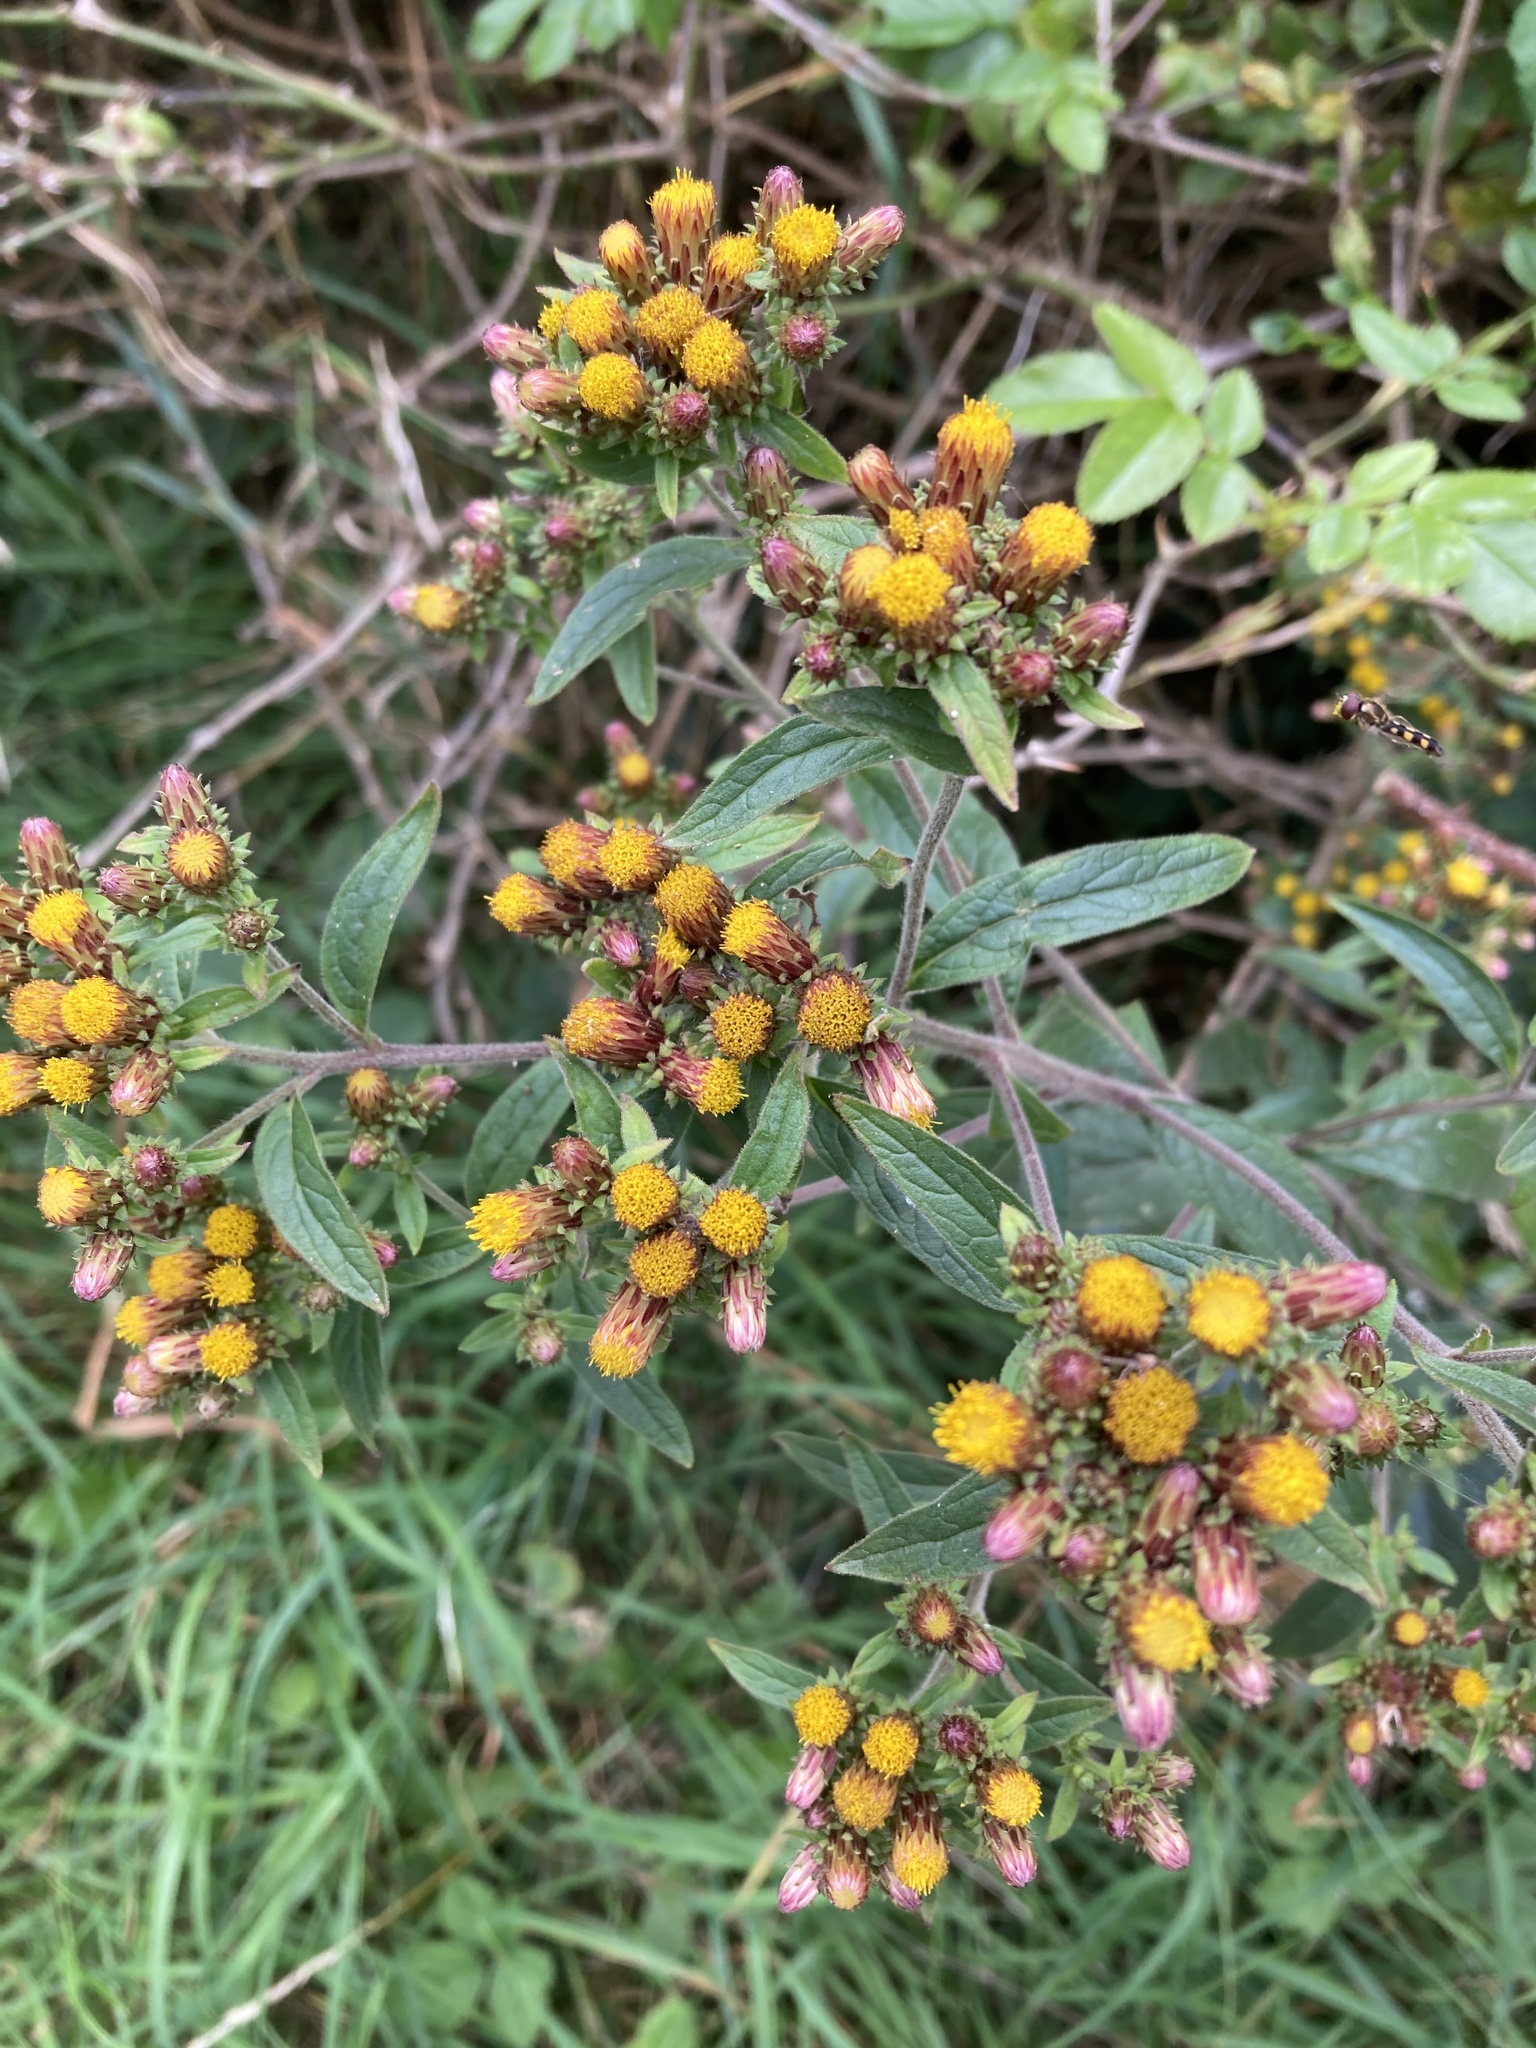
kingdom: Plantae
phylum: Tracheophyta
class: Magnoliopsida
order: Asterales
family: Asteraceae
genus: Pentanema
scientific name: Pentanema squarrosum
